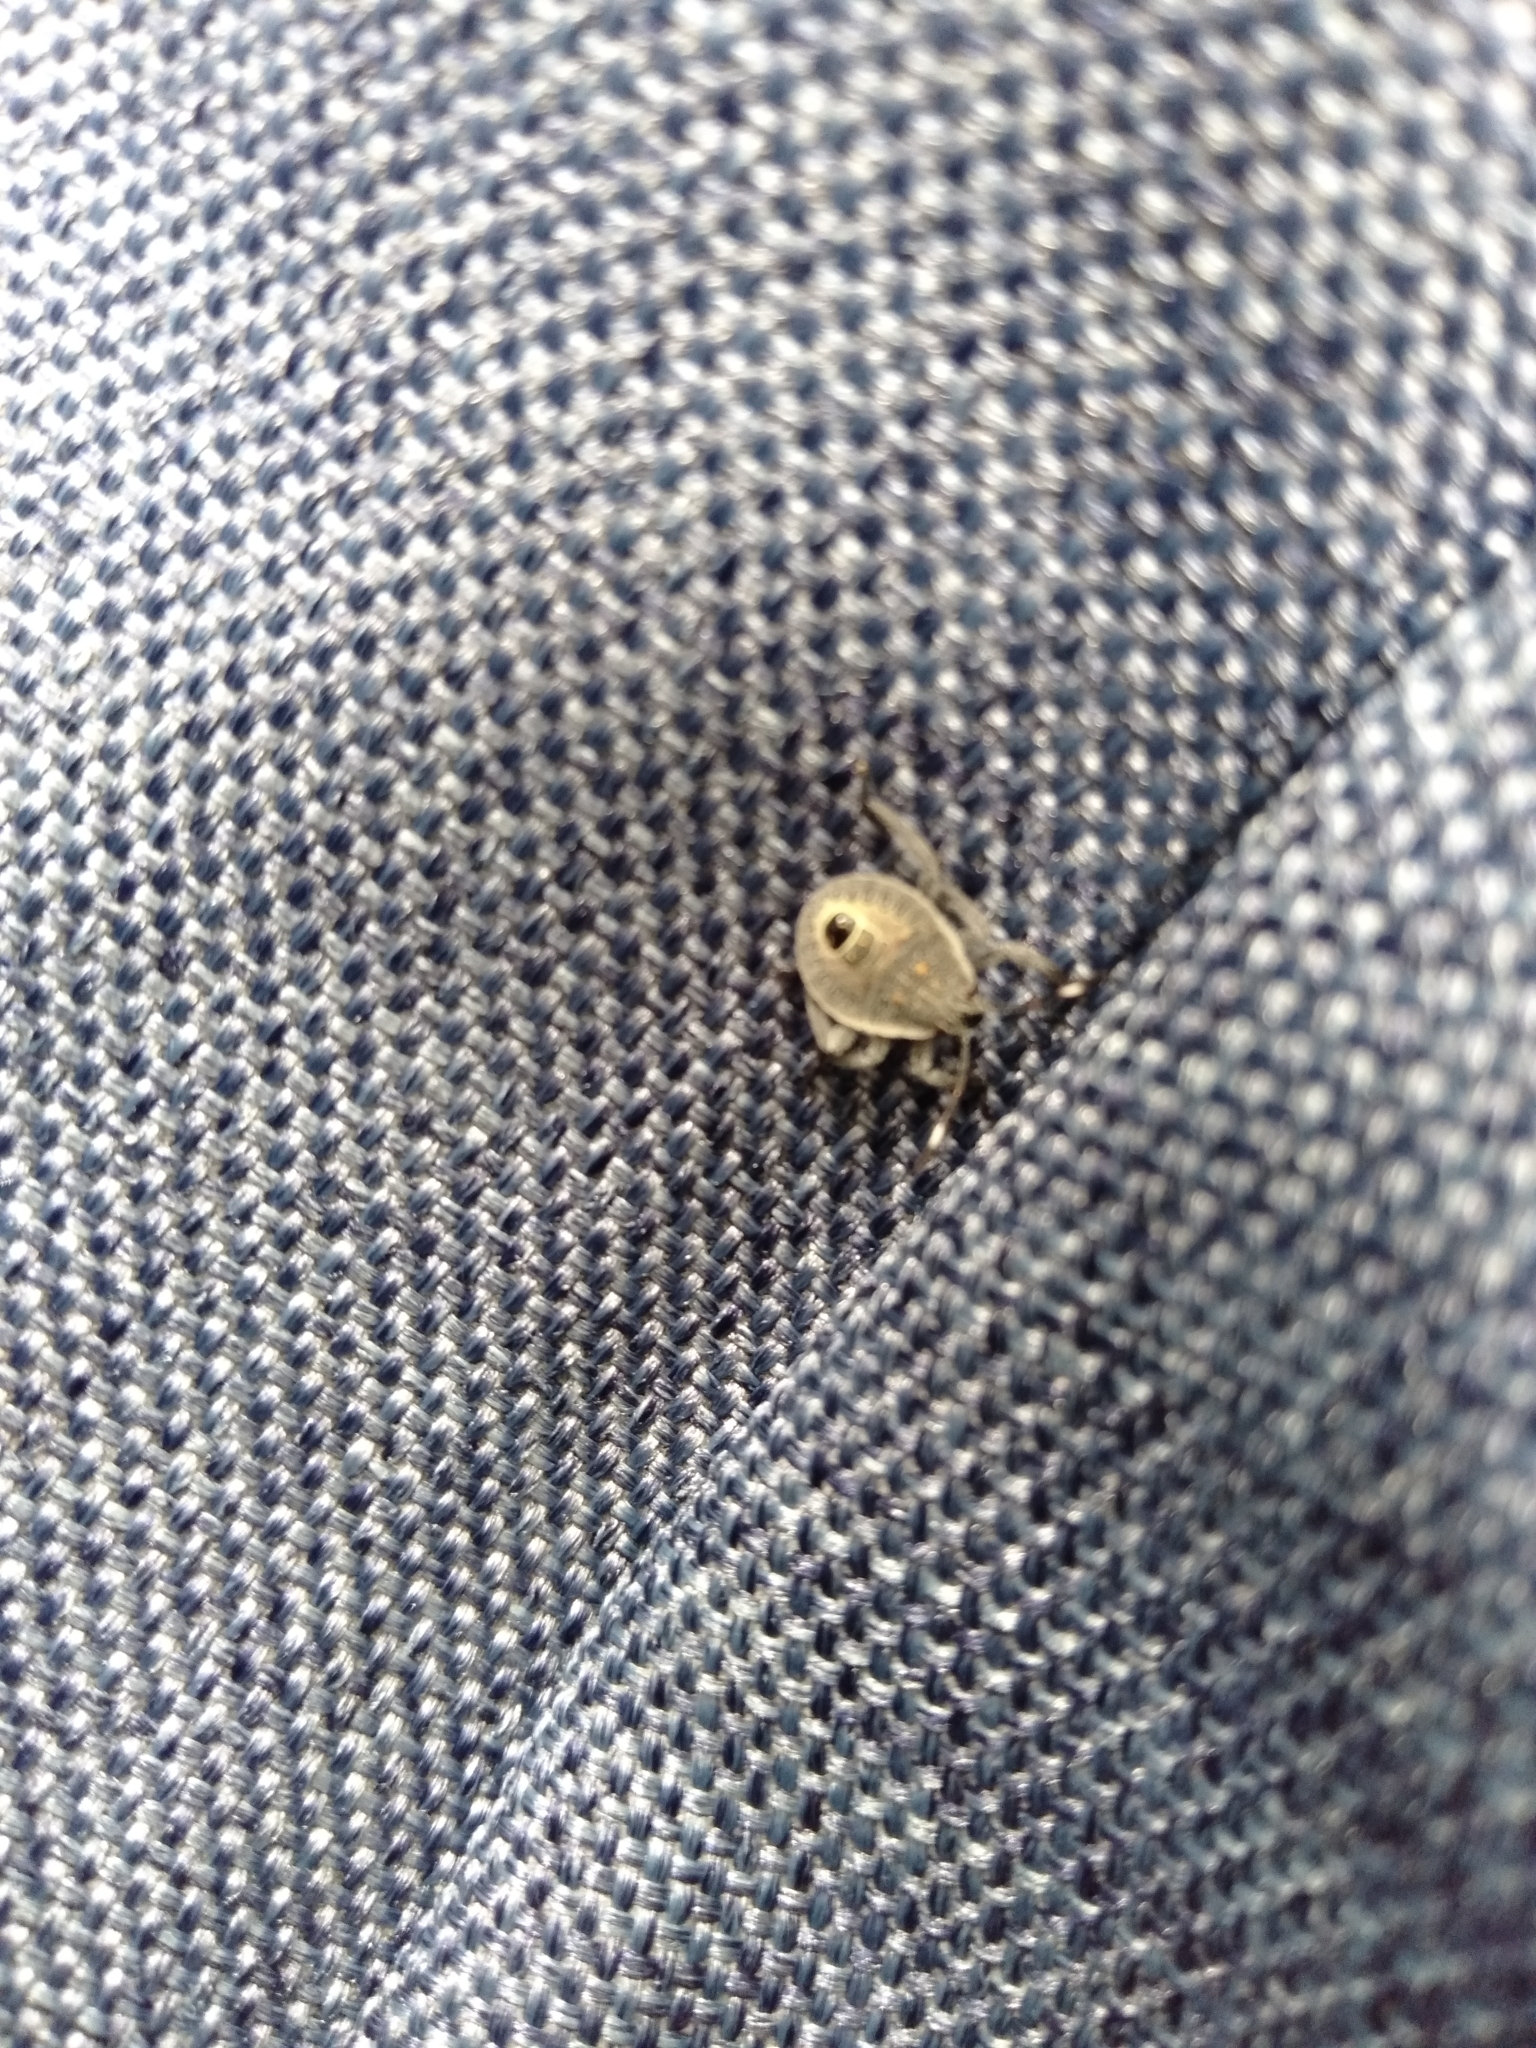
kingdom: Animalia
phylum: Arthropoda
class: Insecta
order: Hemiptera
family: Pentatomidae
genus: Erthesina
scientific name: Erthesina fullo
